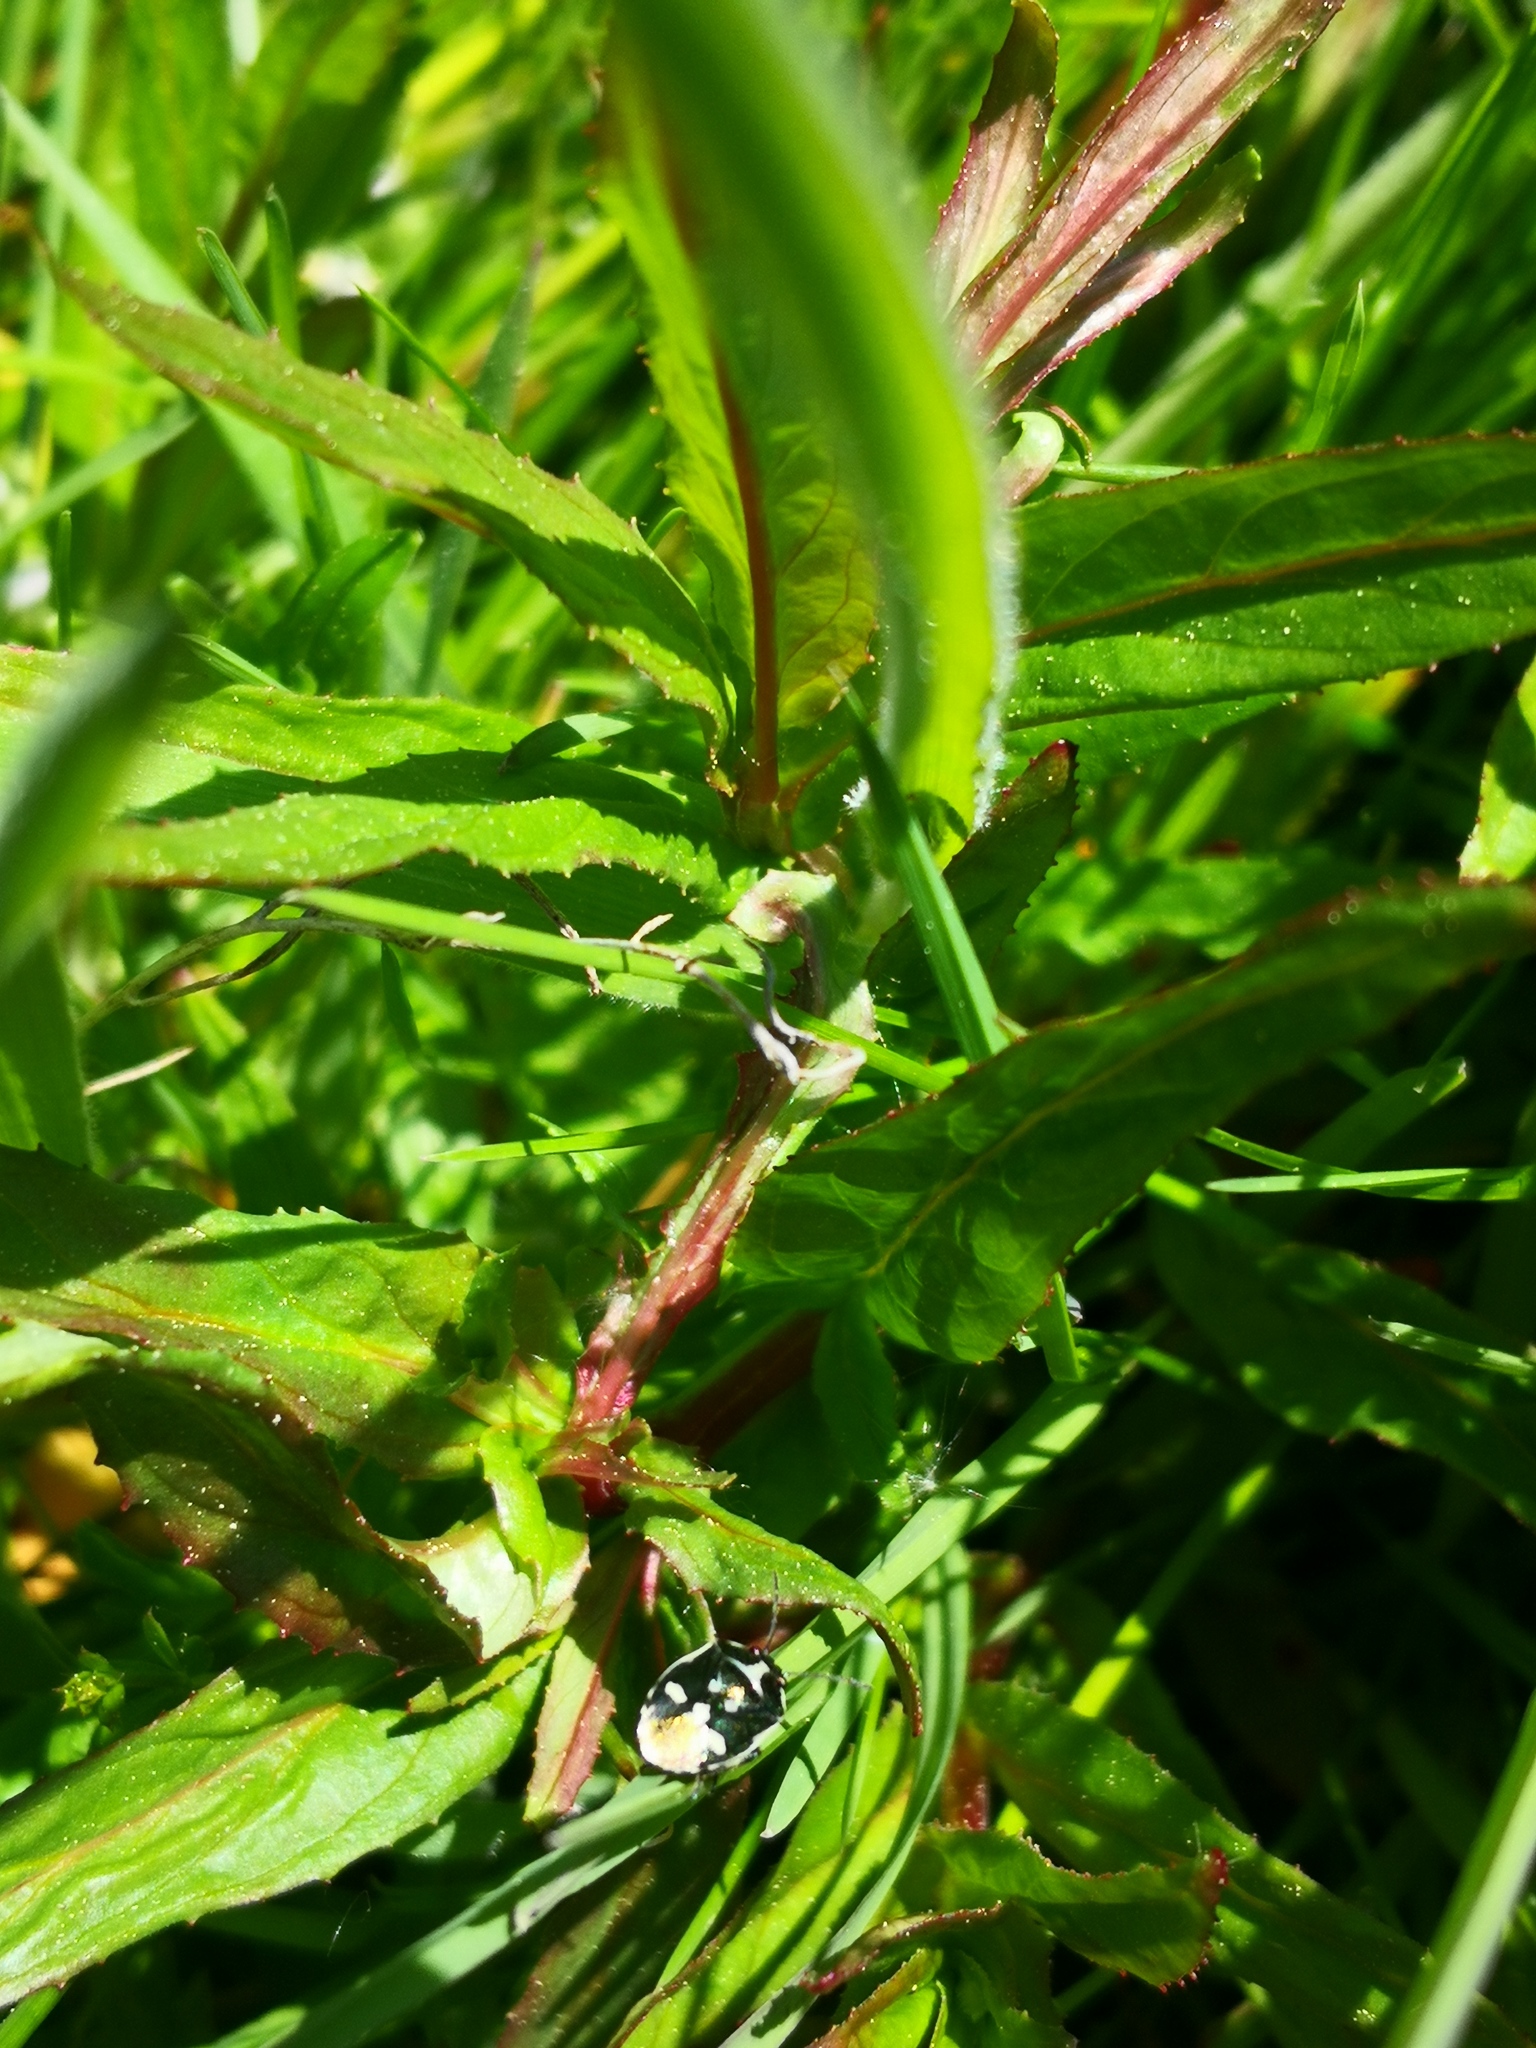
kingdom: Animalia
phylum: Arthropoda
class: Insecta
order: Hemiptera
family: Pentatomidae
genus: Eurydema
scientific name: Eurydema oleracea
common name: Cabbage bug
